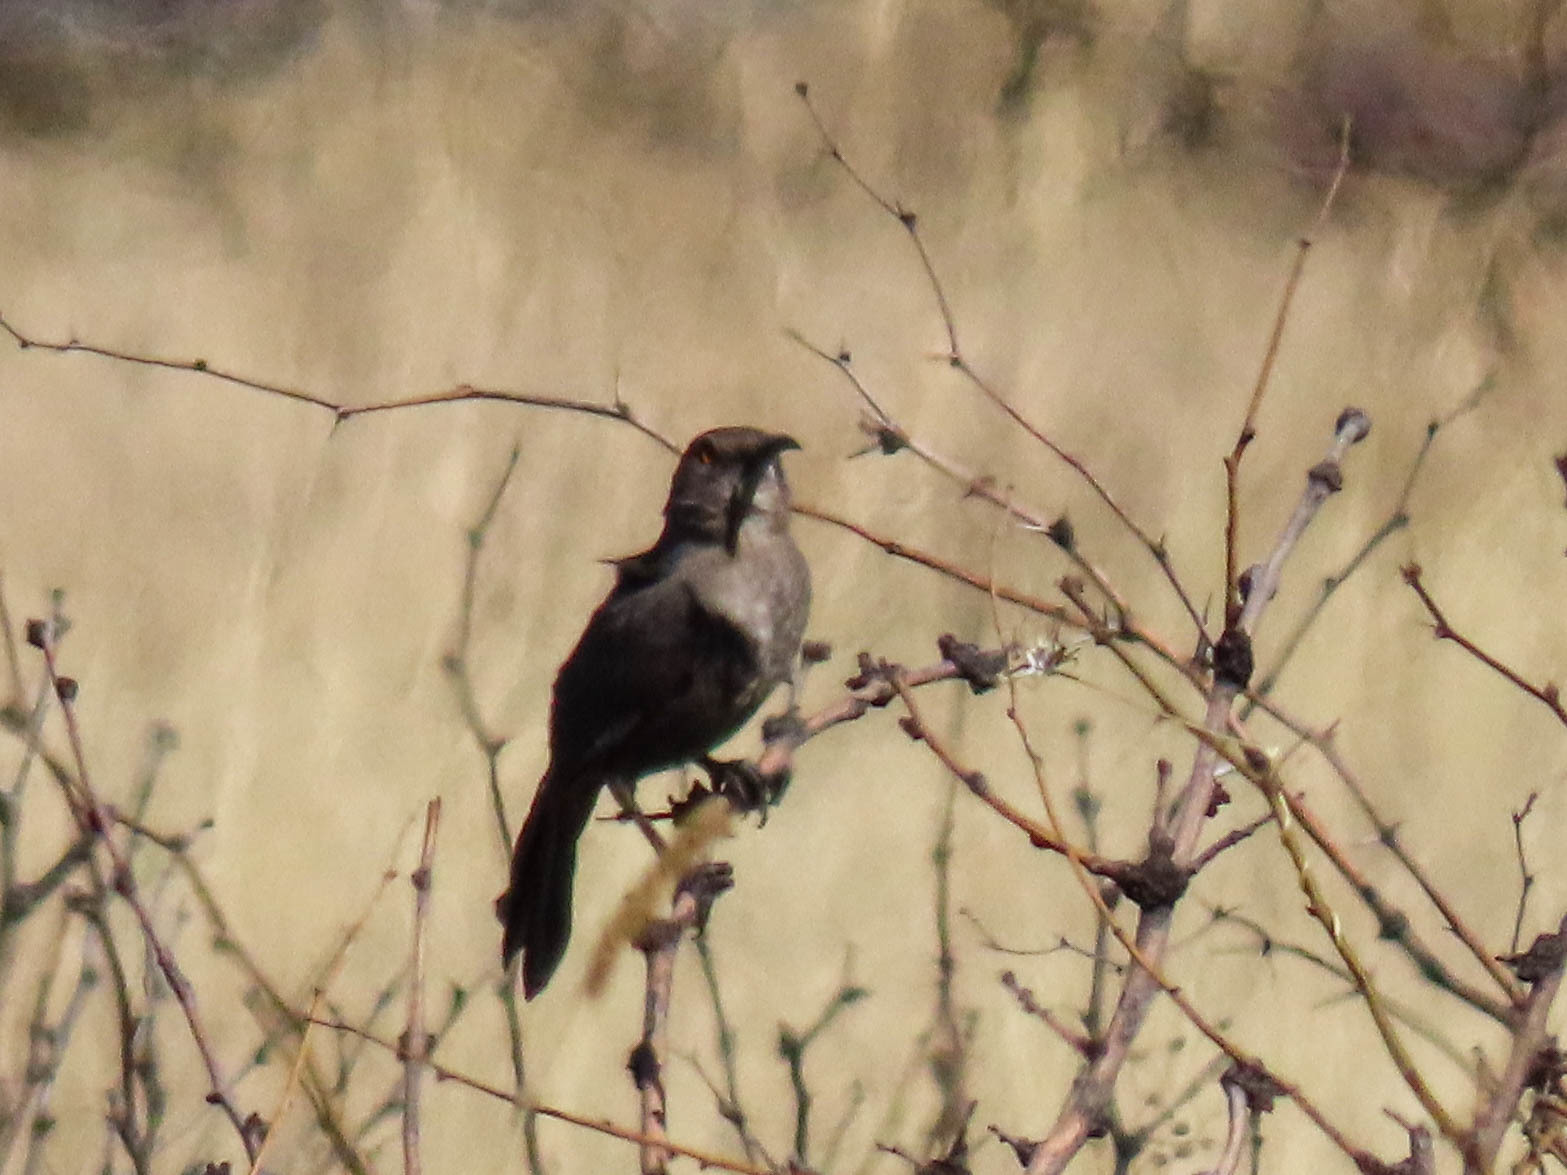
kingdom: Animalia
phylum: Chordata
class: Aves
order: Passeriformes
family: Mimidae
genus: Toxostoma
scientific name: Toxostoma curvirostre
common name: Curve-billed thrasher
